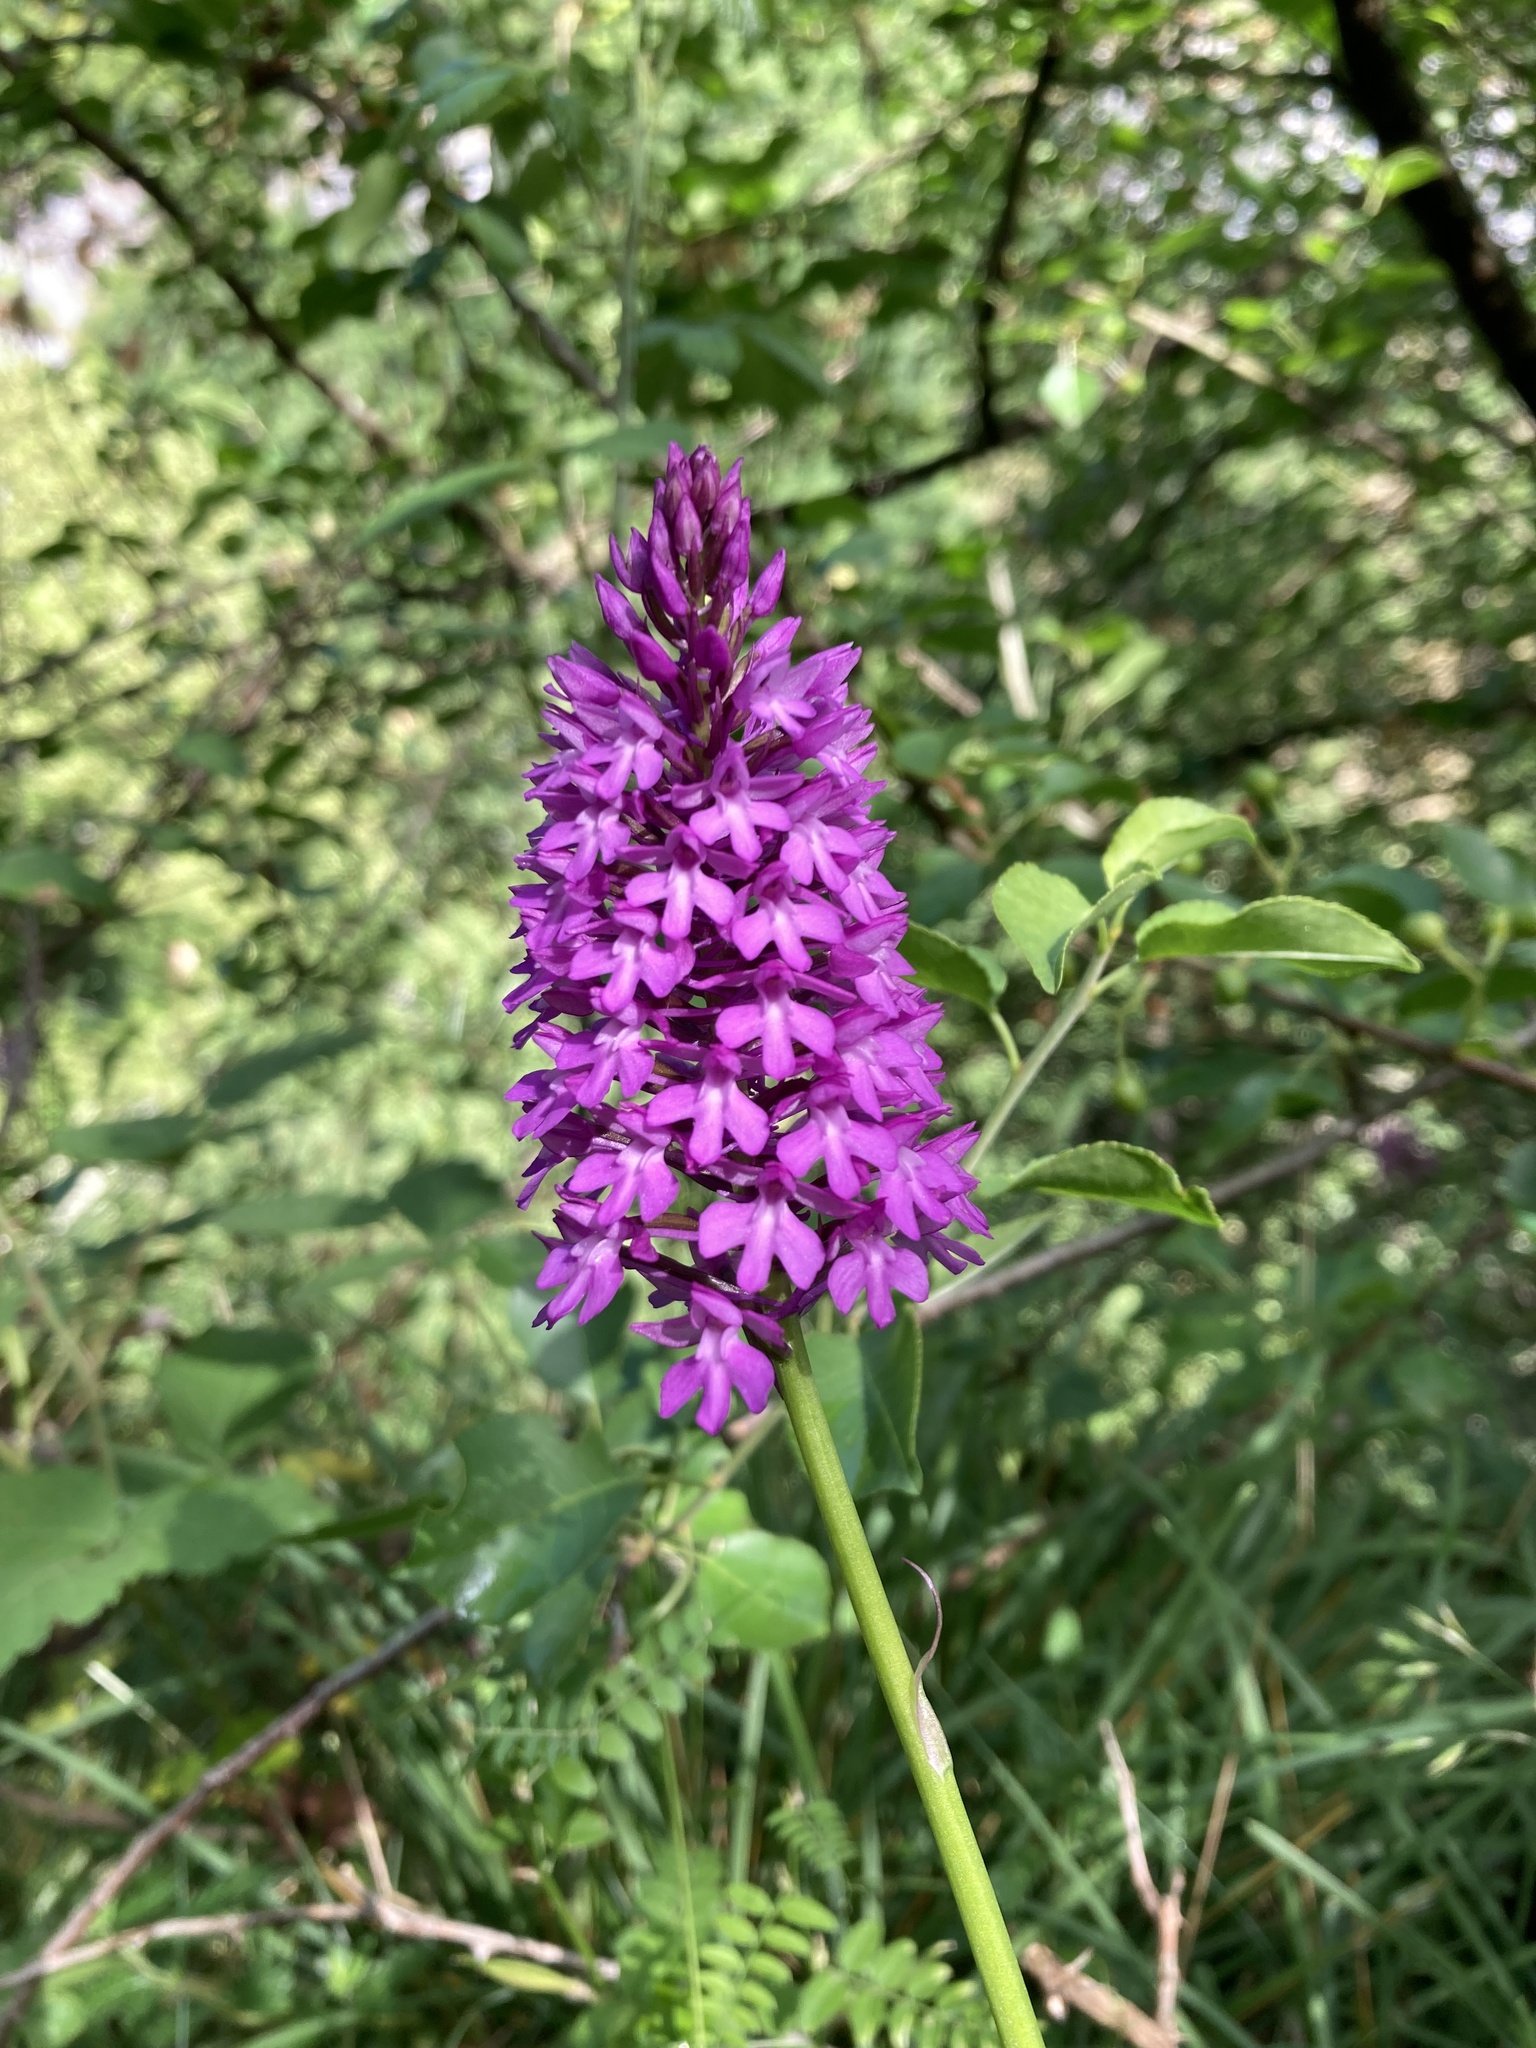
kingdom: Plantae
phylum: Tracheophyta
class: Liliopsida
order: Asparagales
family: Orchidaceae
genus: Anacamptis
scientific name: Anacamptis pyramidalis
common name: Pyramidal orchid
